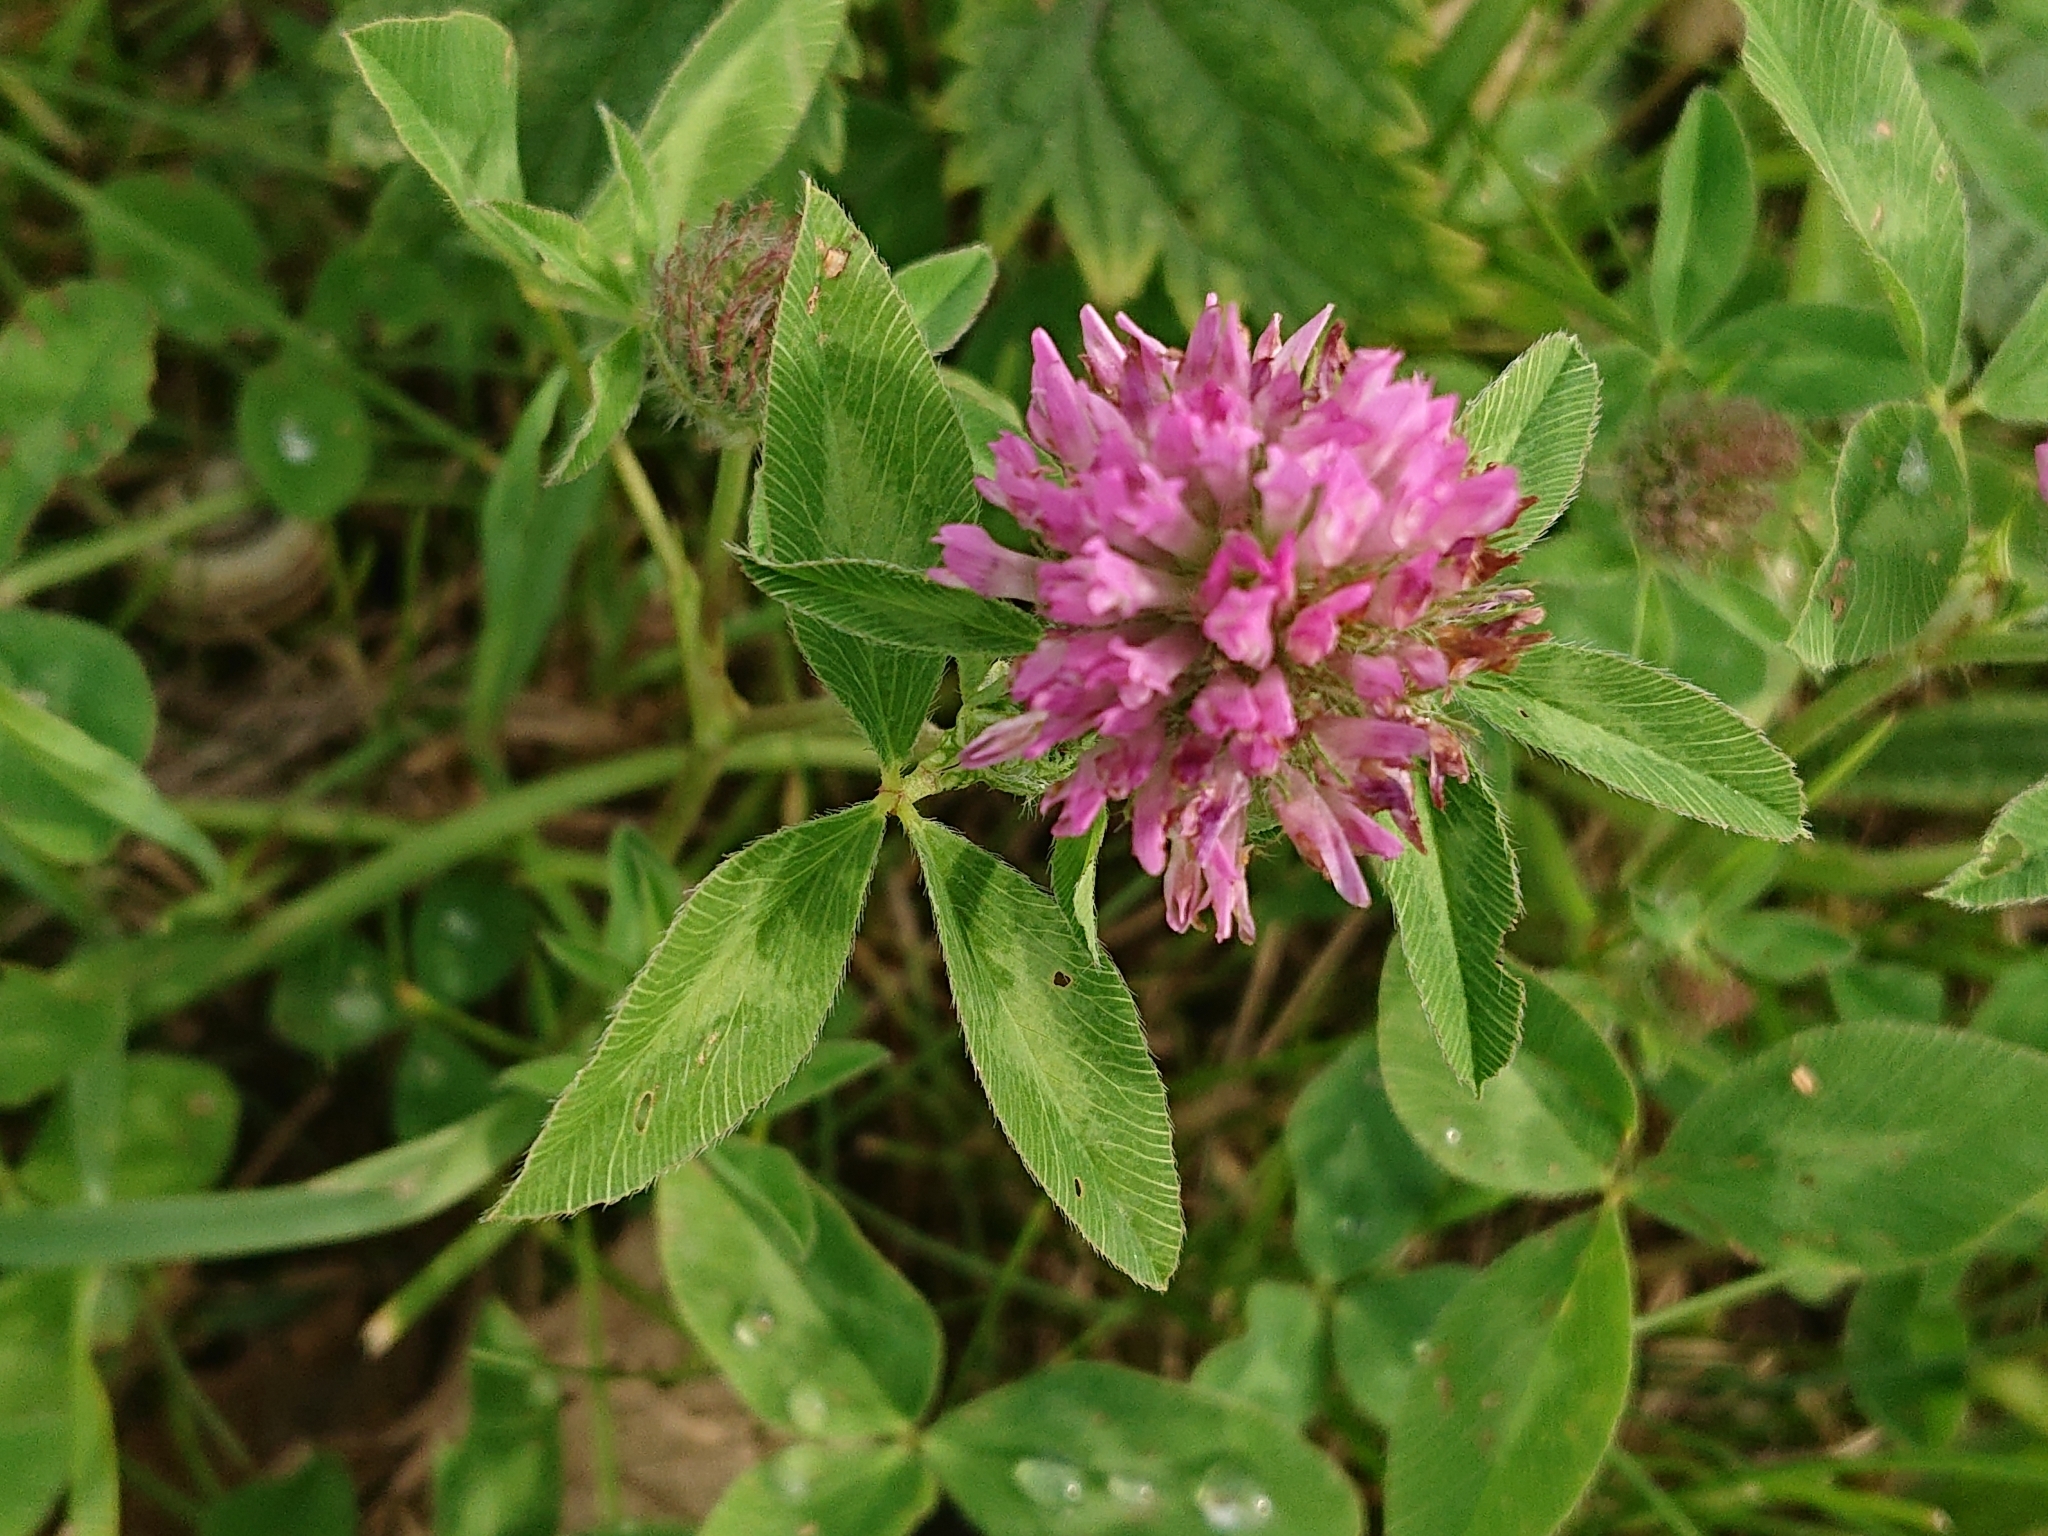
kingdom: Plantae
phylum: Tracheophyta
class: Magnoliopsida
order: Fabales
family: Fabaceae
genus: Trifolium
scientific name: Trifolium pratense
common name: Red clover
